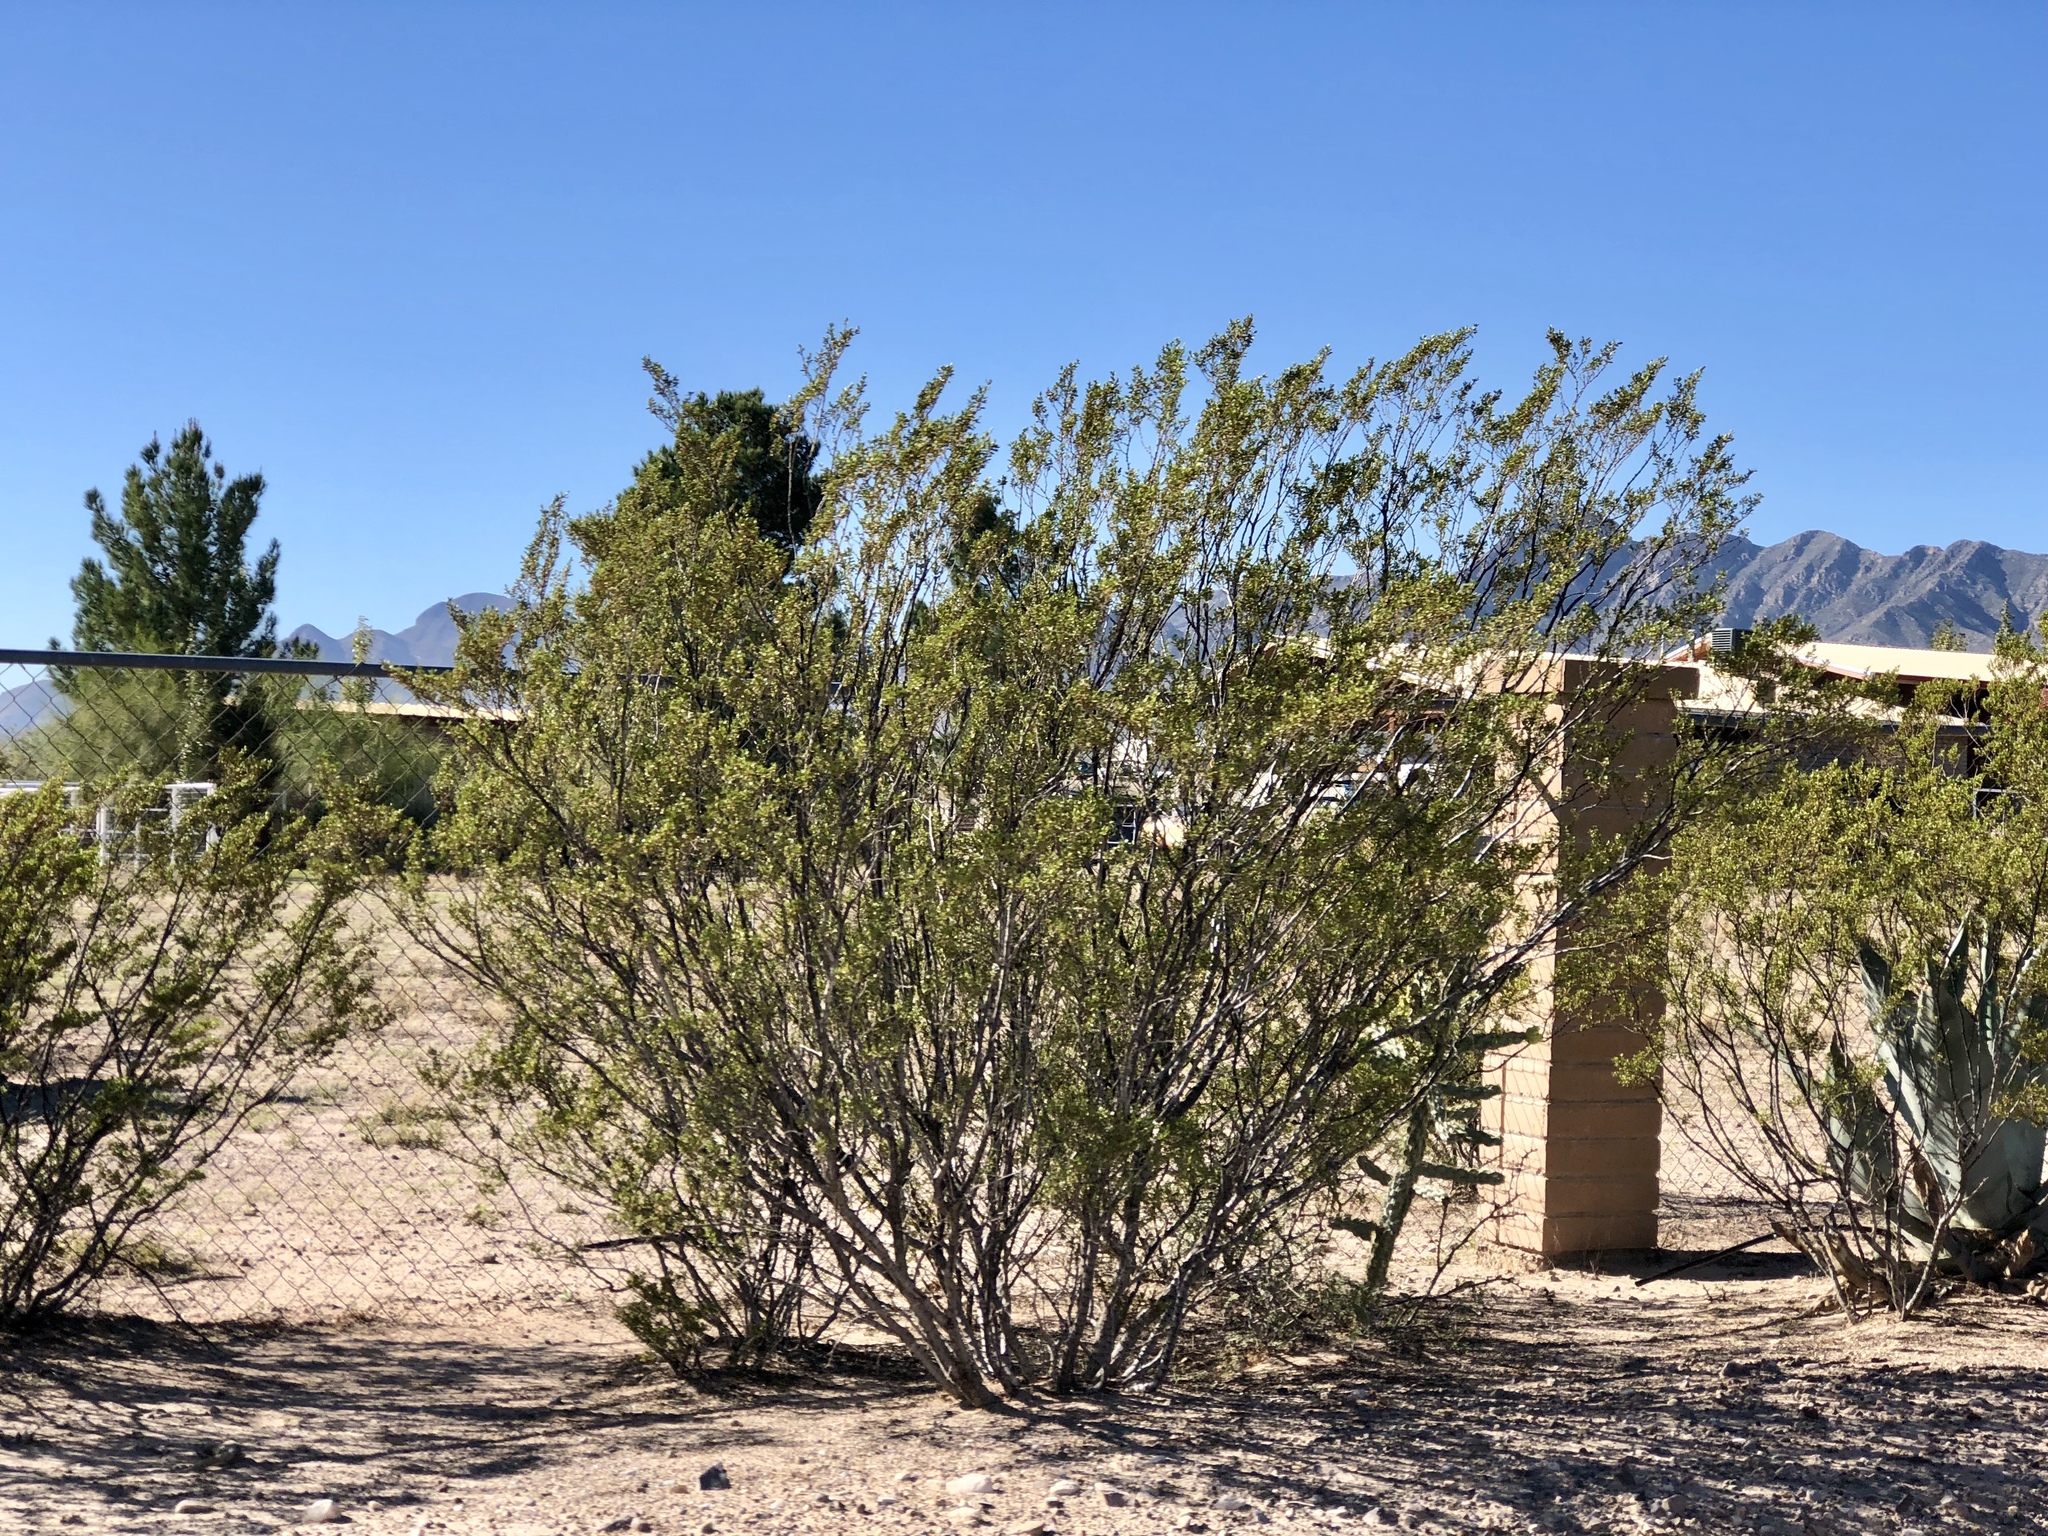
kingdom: Plantae
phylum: Tracheophyta
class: Magnoliopsida
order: Zygophyllales
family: Zygophyllaceae
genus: Larrea
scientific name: Larrea tridentata
